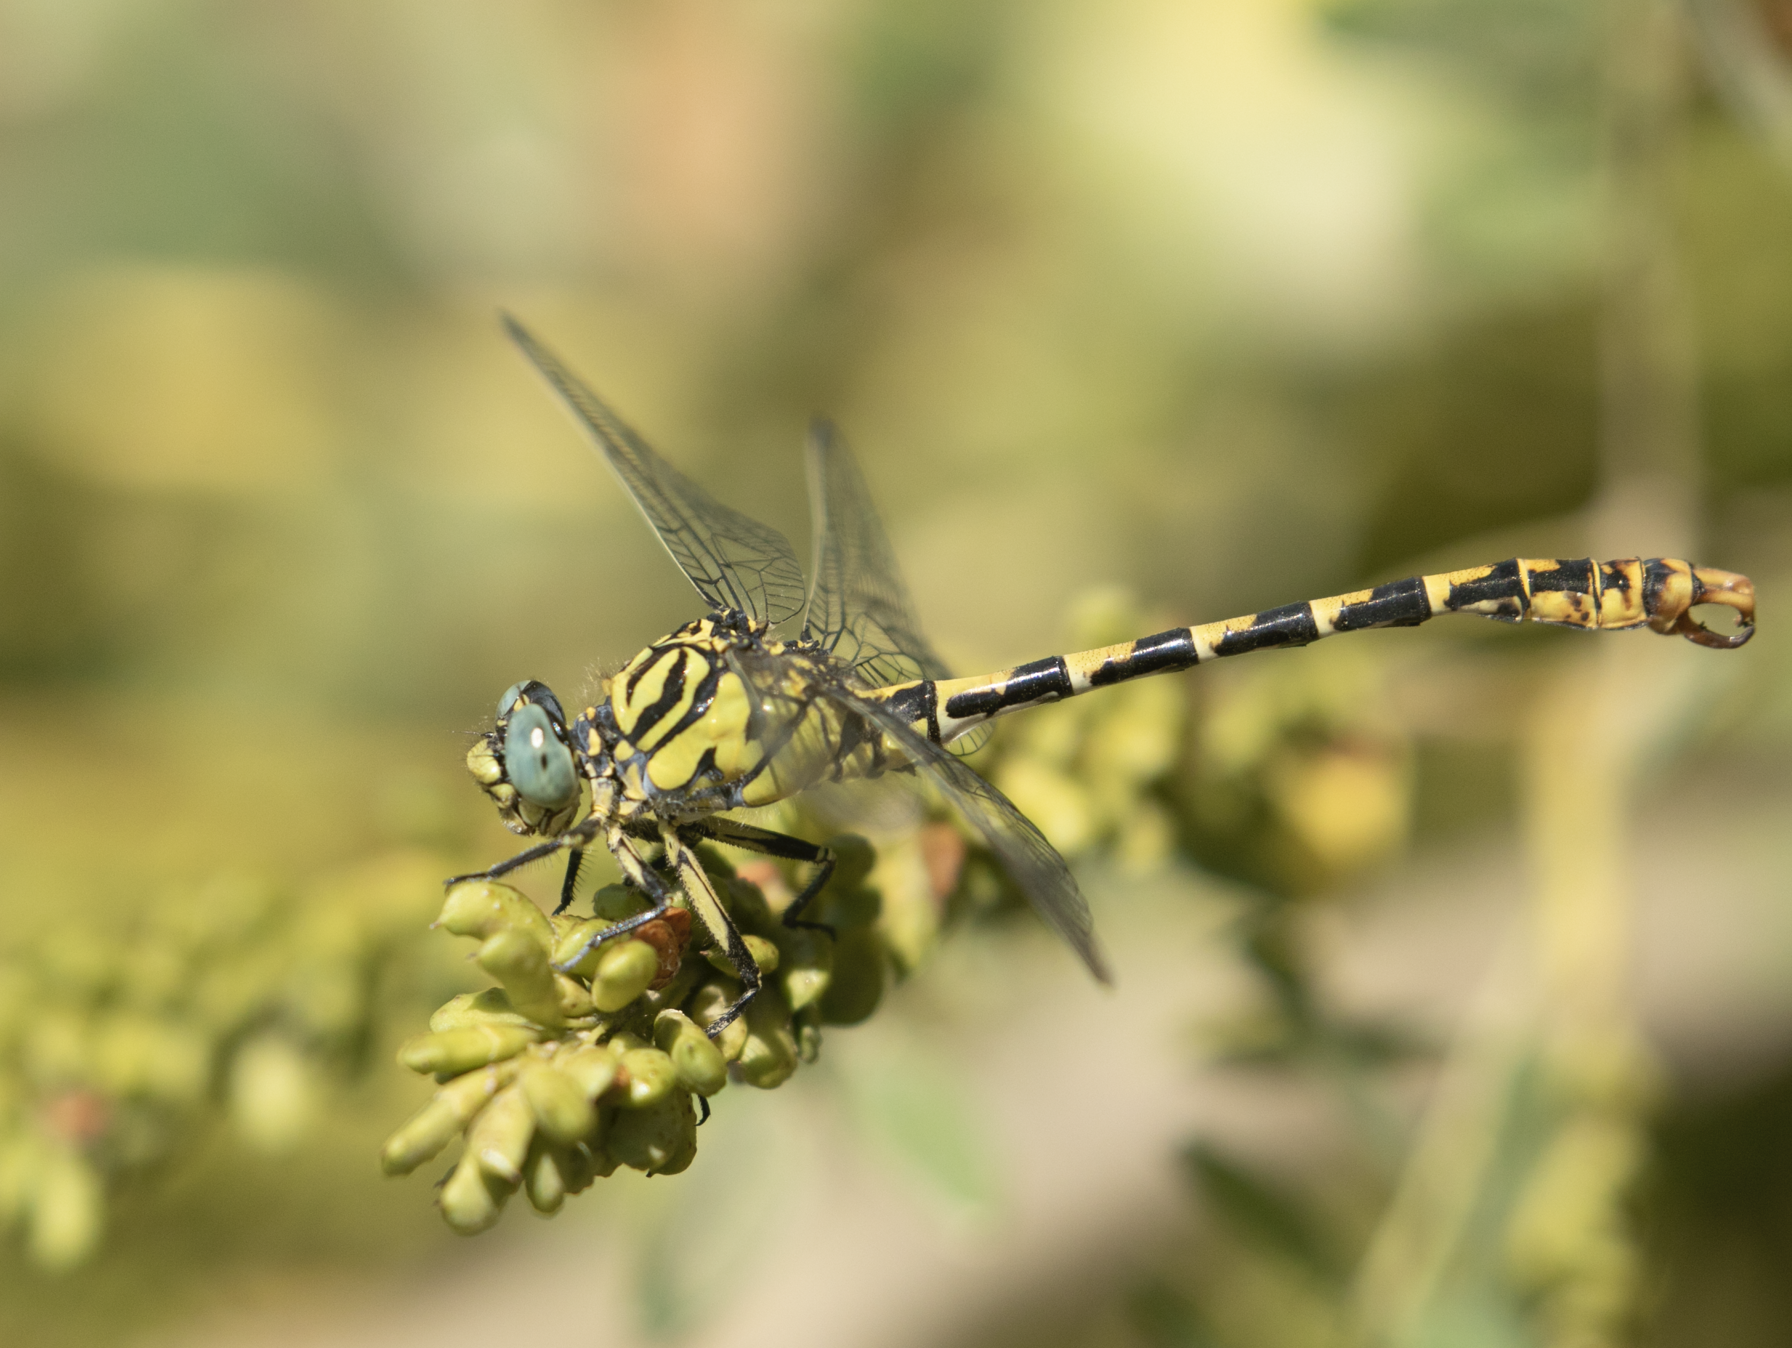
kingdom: Animalia
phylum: Arthropoda
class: Insecta
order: Odonata
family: Gomphidae
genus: Onychogomphus
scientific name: Onychogomphus forcipatus
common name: Small pincertail
